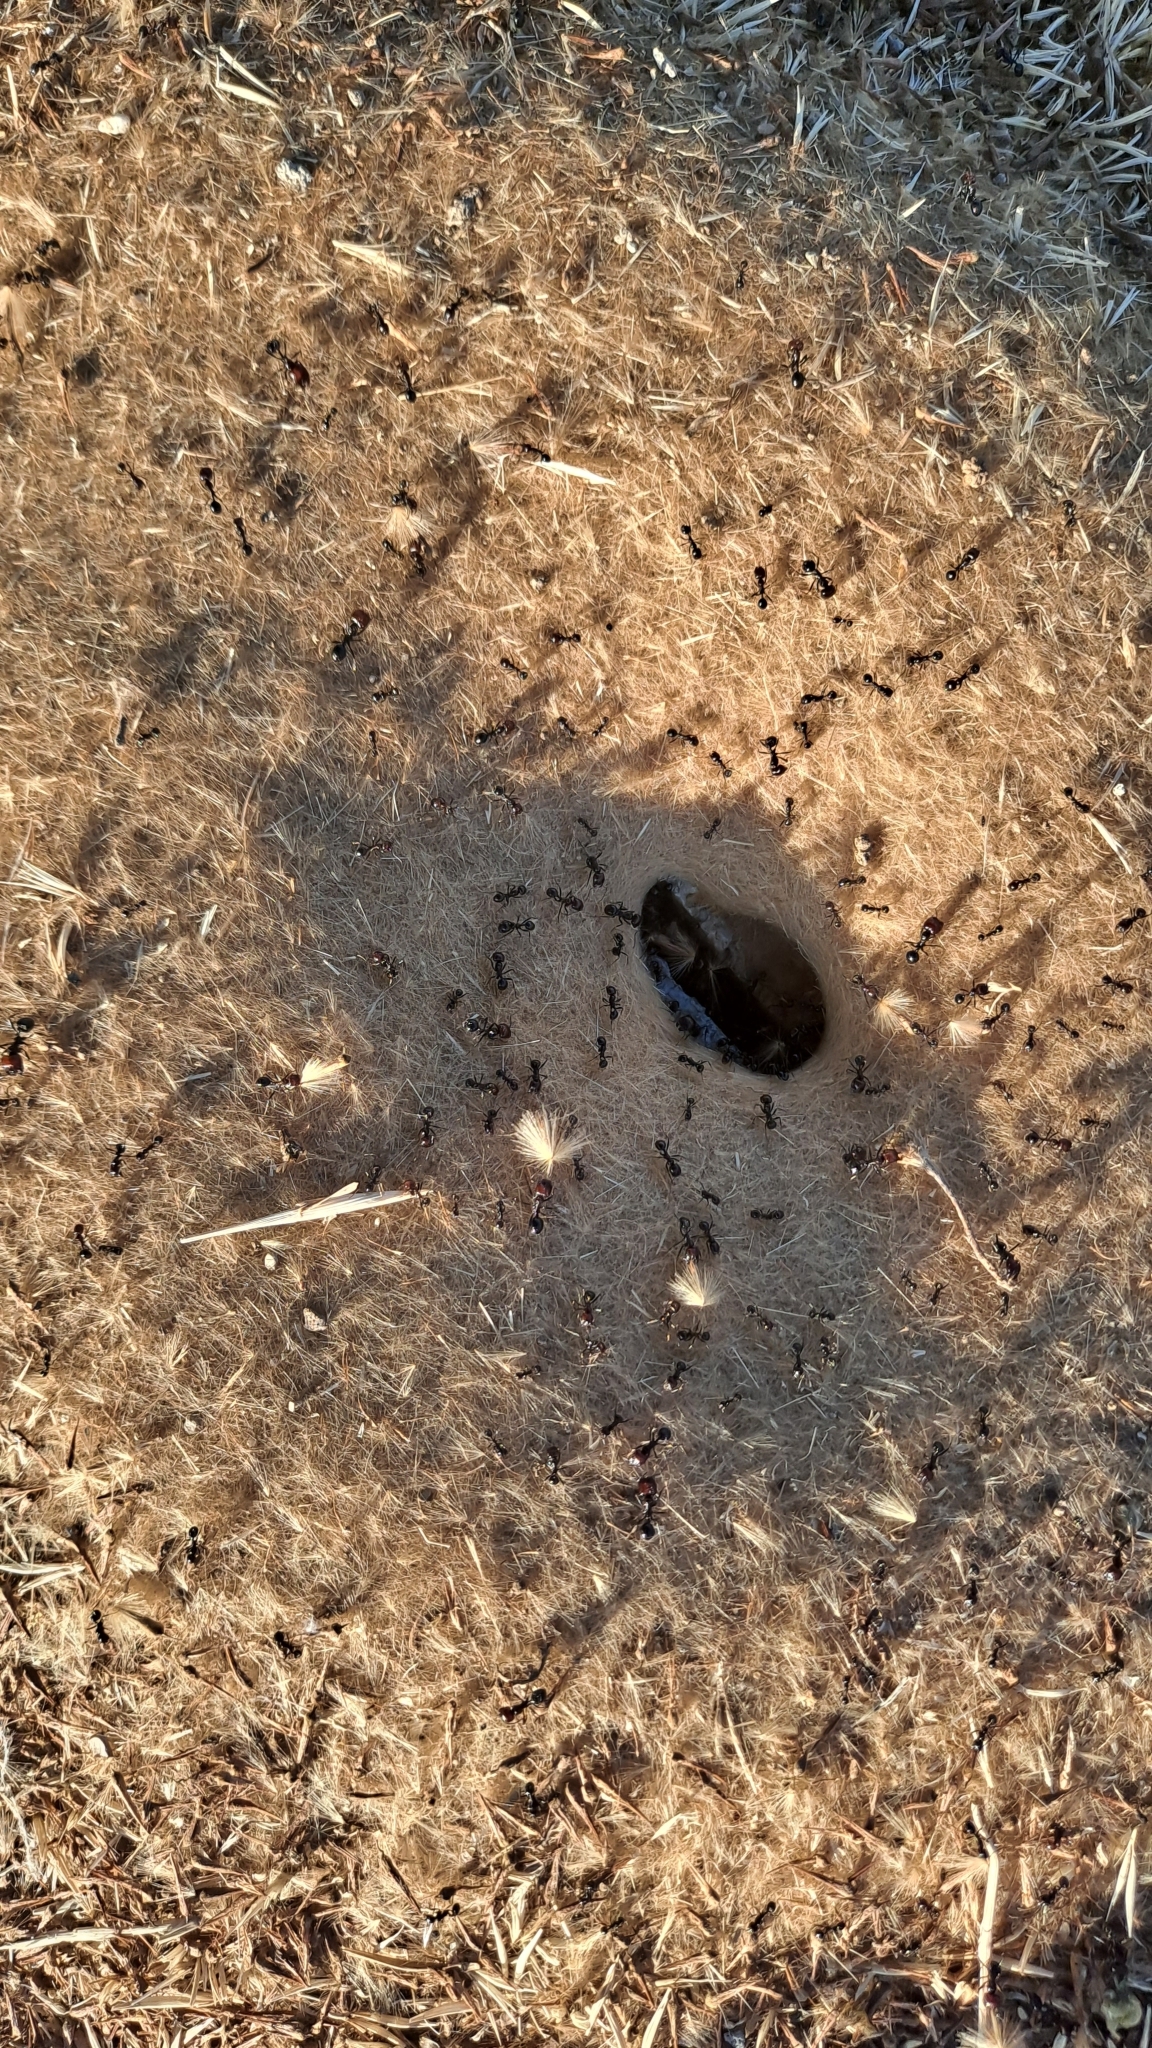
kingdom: Animalia
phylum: Arthropoda
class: Insecta
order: Hymenoptera
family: Formicidae
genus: Messor
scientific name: Messor barbarus
